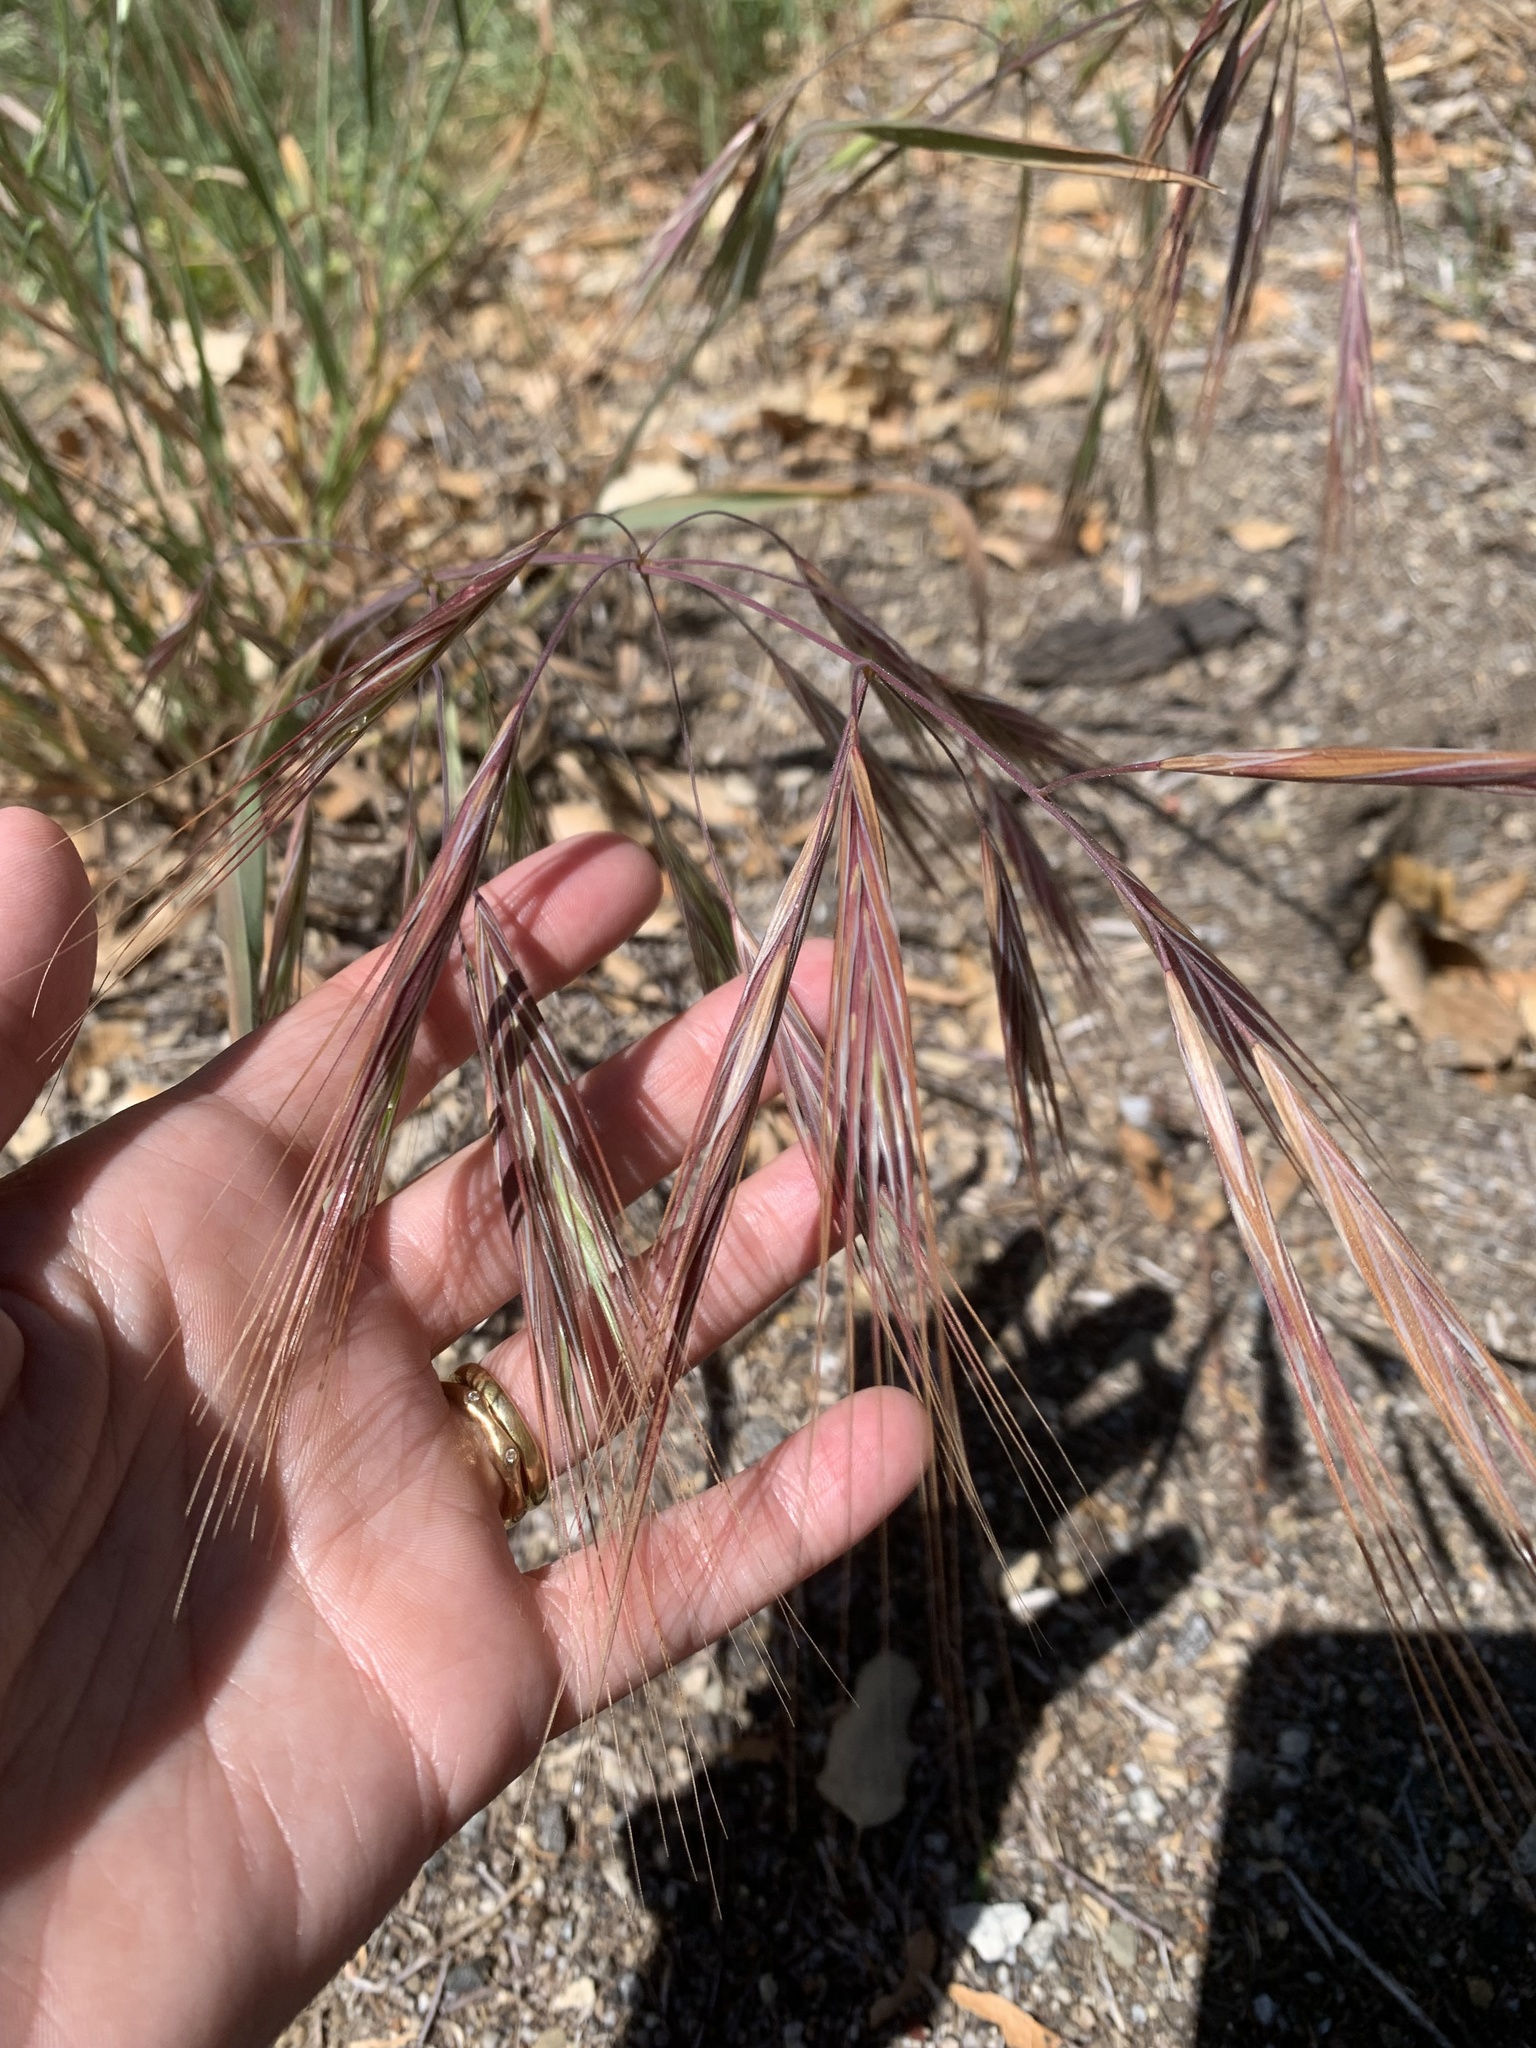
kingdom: Plantae
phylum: Tracheophyta
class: Liliopsida
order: Poales
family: Poaceae
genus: Bromus
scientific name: Bromus diandrus
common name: Ripgut brome
